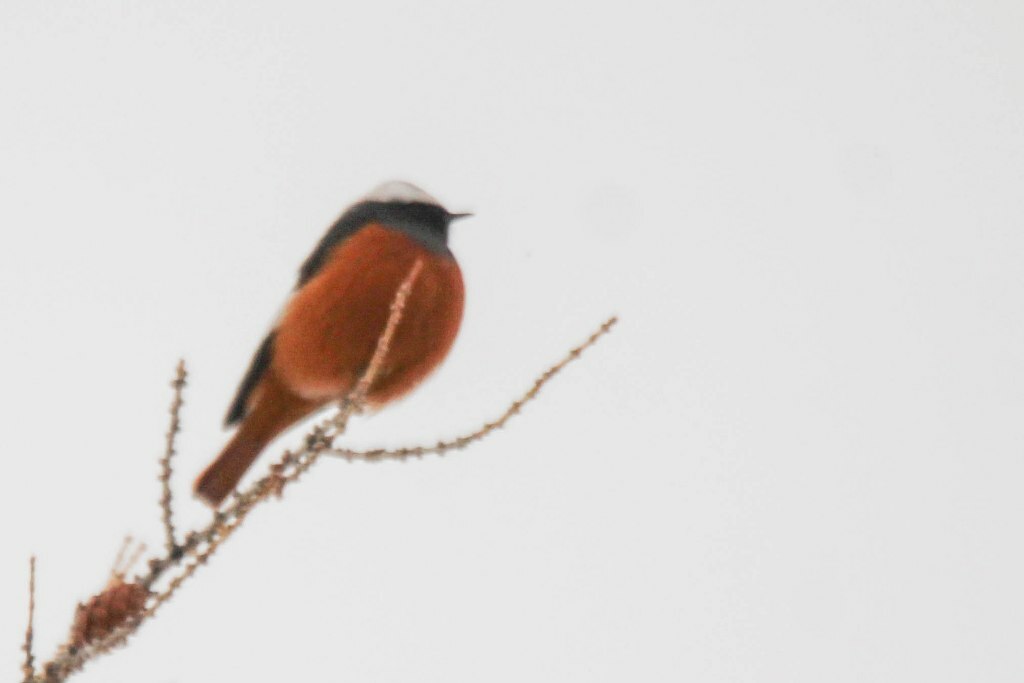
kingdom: Animalia
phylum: Chordata
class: Aves
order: Passeriformes
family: Muscicapidae
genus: Phoenicurus
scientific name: Phoenicurus erythrogastrus
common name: Güldenstädt's redstart
